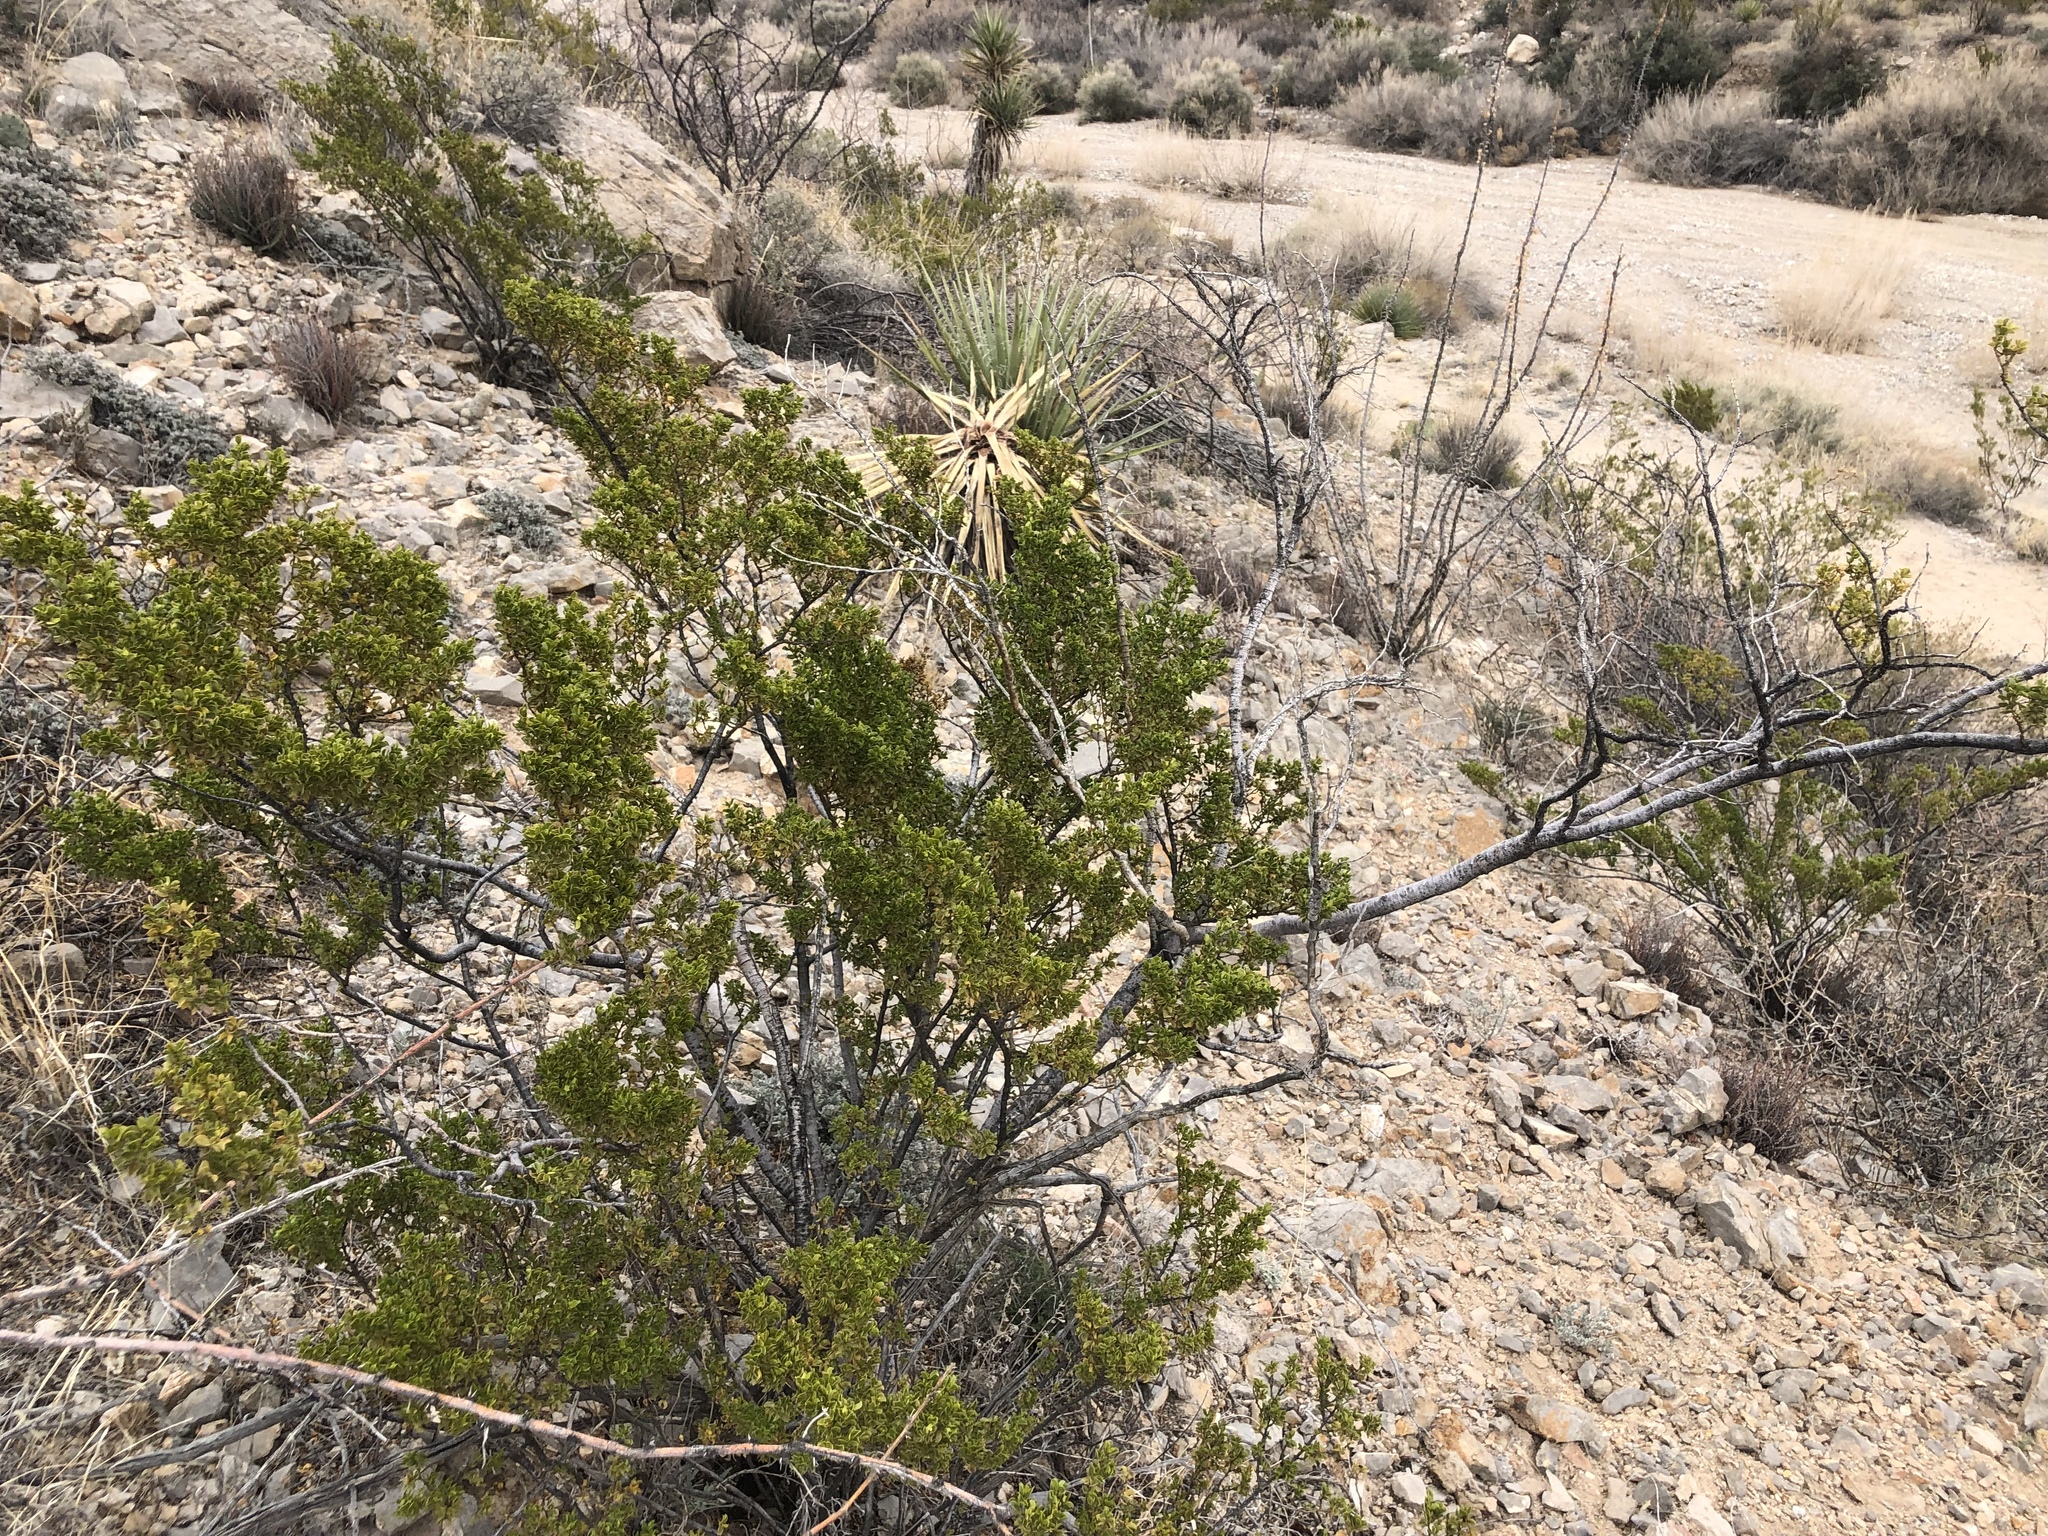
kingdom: Plantae
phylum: Tracheophyta
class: Magnoliopsida
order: Zygophyllales
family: Zygophyllaceae
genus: Larrea
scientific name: Larrea tridentata
